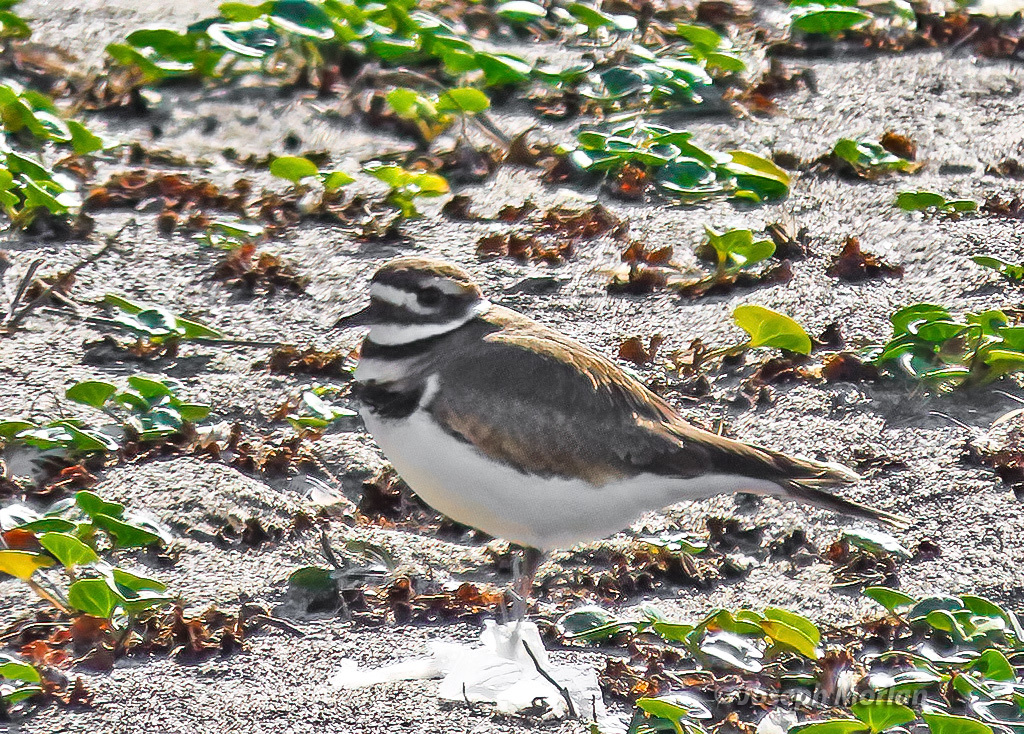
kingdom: Animalia
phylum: Chordata
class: Aves
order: Charadriiformes
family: Charadriidae
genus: Charadrius
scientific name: Charadrius vociferus
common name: Killdeer
